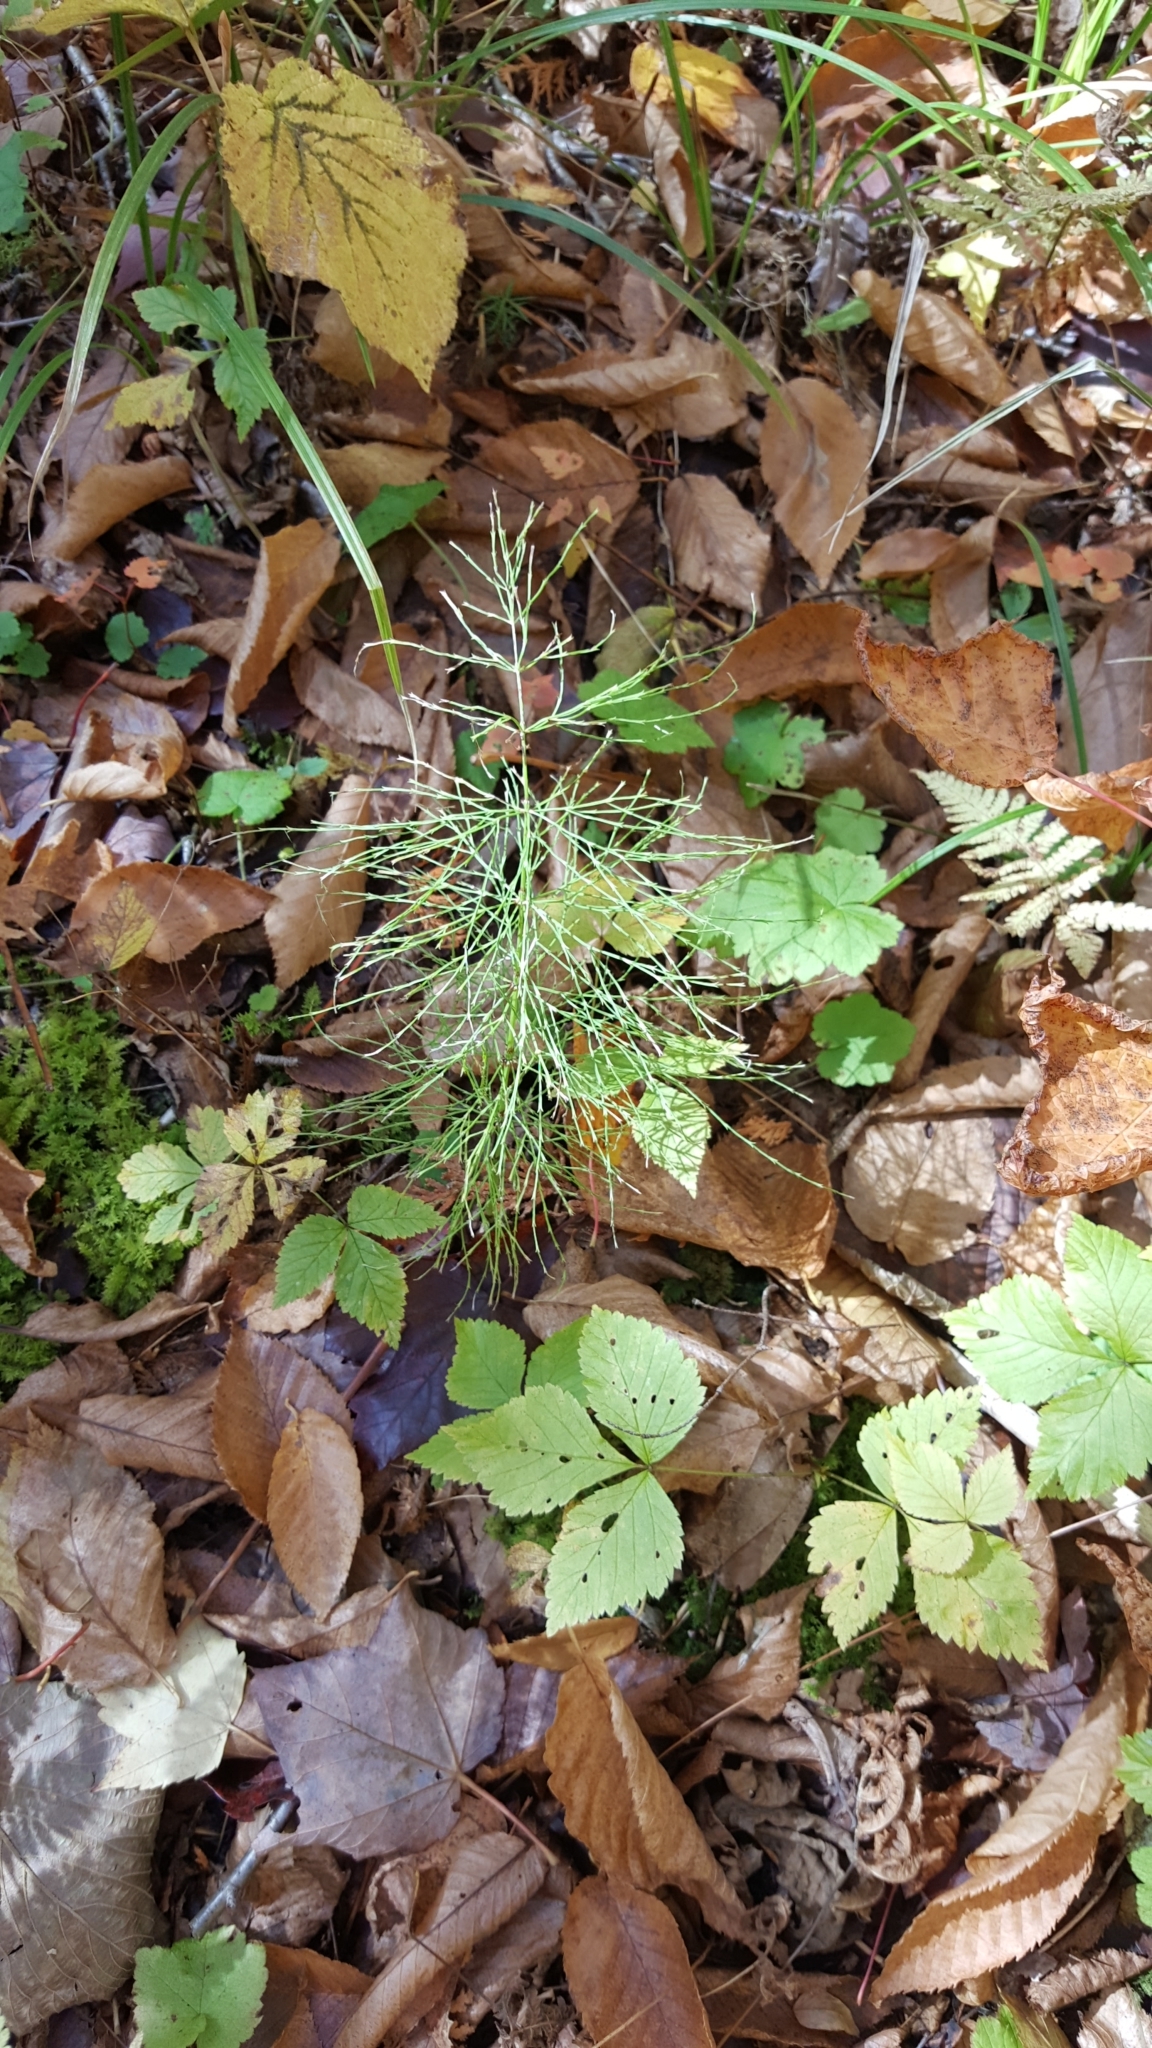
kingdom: Plantae
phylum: Tracheophyta
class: Polypodiopsida
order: Equisetales
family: Equisetaceae
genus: Equisetum
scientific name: Equisetum sylvaticum
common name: Wood horsetail
